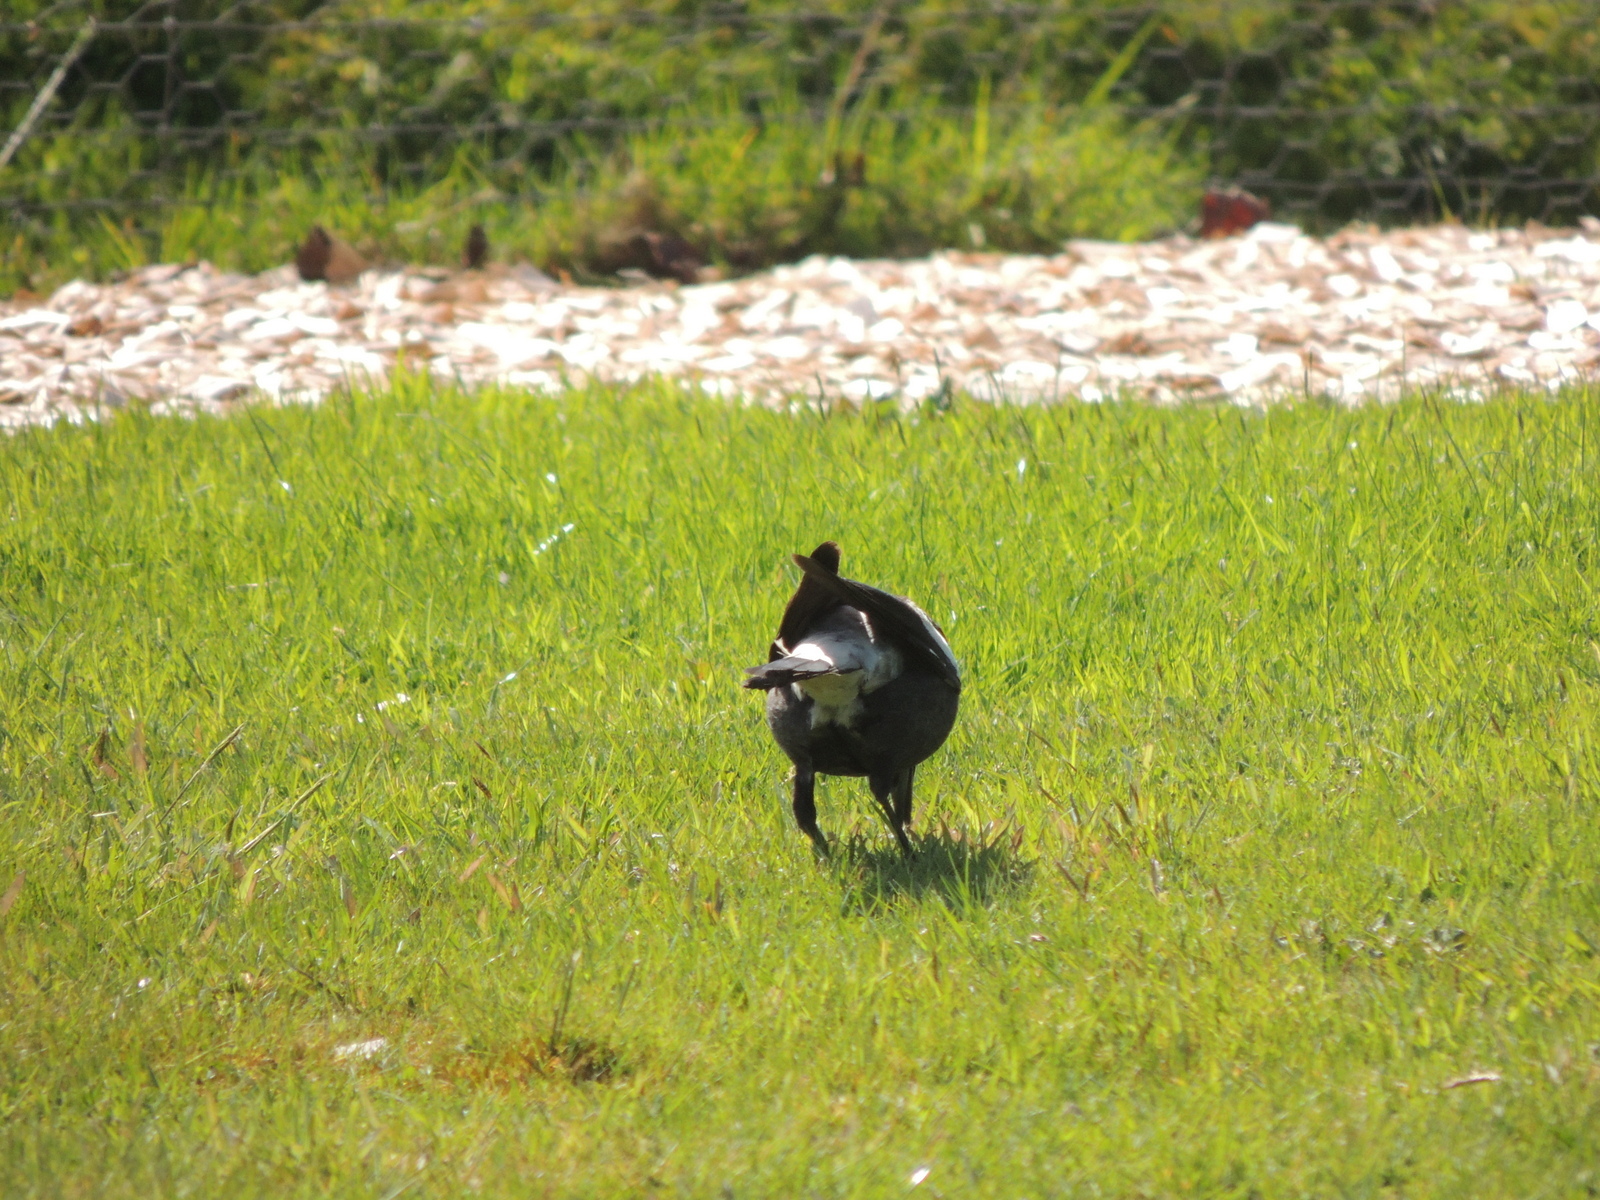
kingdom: Animalia
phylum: Chordata
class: Aves
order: Passeriformes
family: Cracticidae
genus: Gymnorhina
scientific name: Gymnorhina tibicen
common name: Australian magpie
